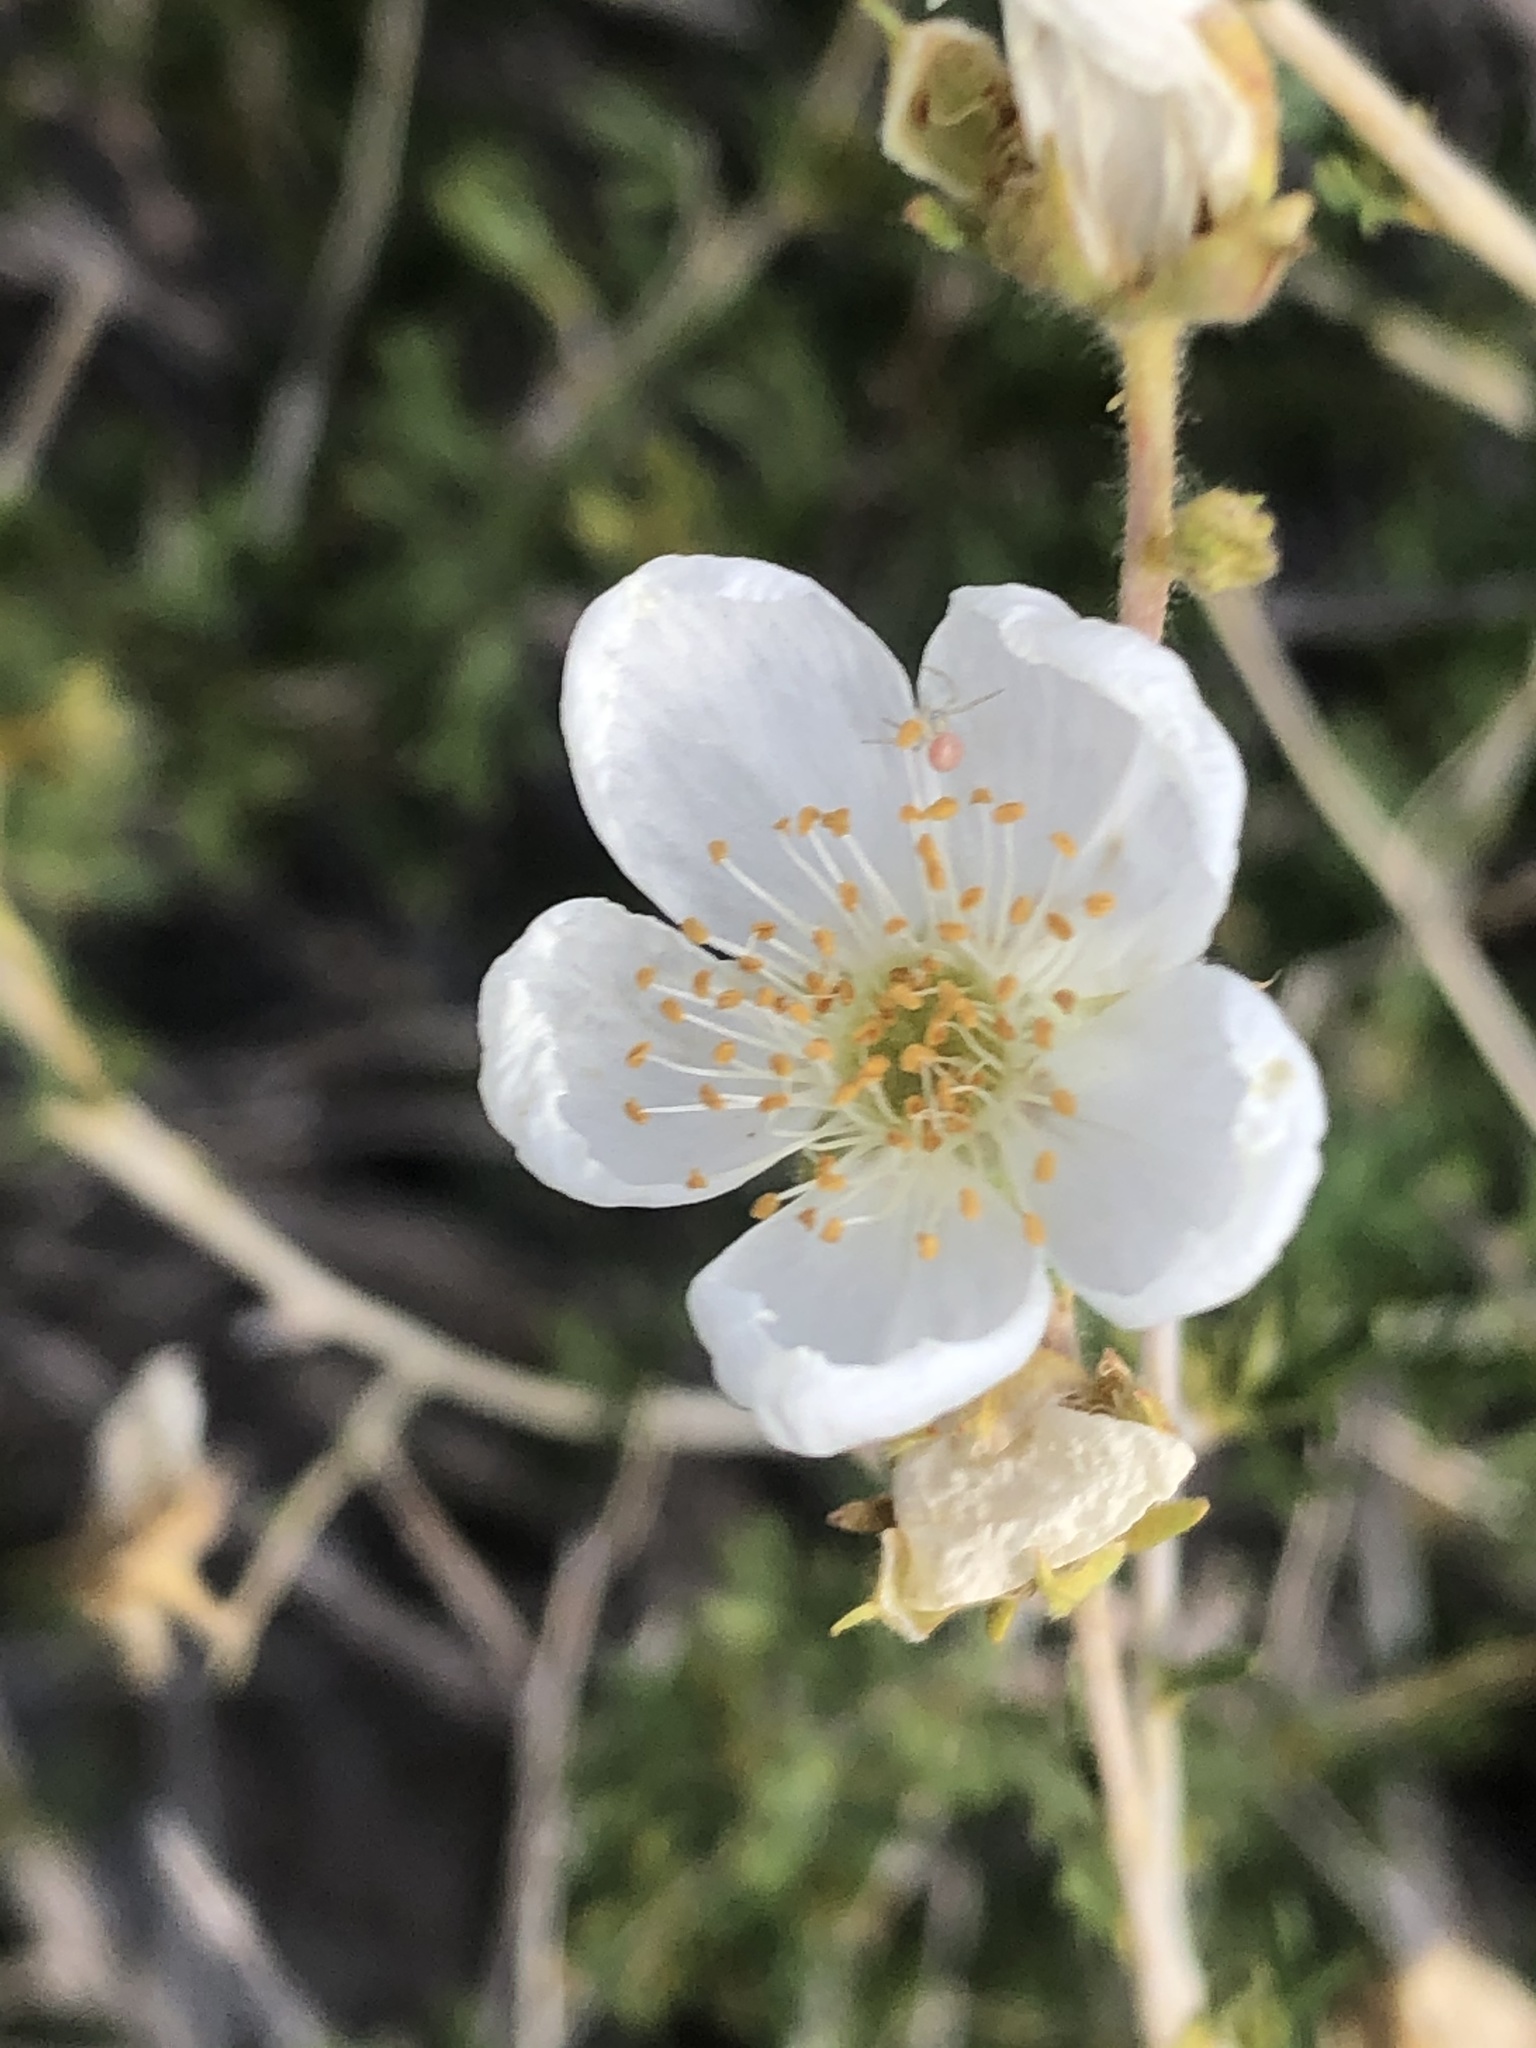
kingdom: Plantae
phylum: Tracheophyta
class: Magnoliopsida
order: Rosales
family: Rosaceae
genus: Fallugia
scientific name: Fallugia paradoxa
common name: Apache-plume
